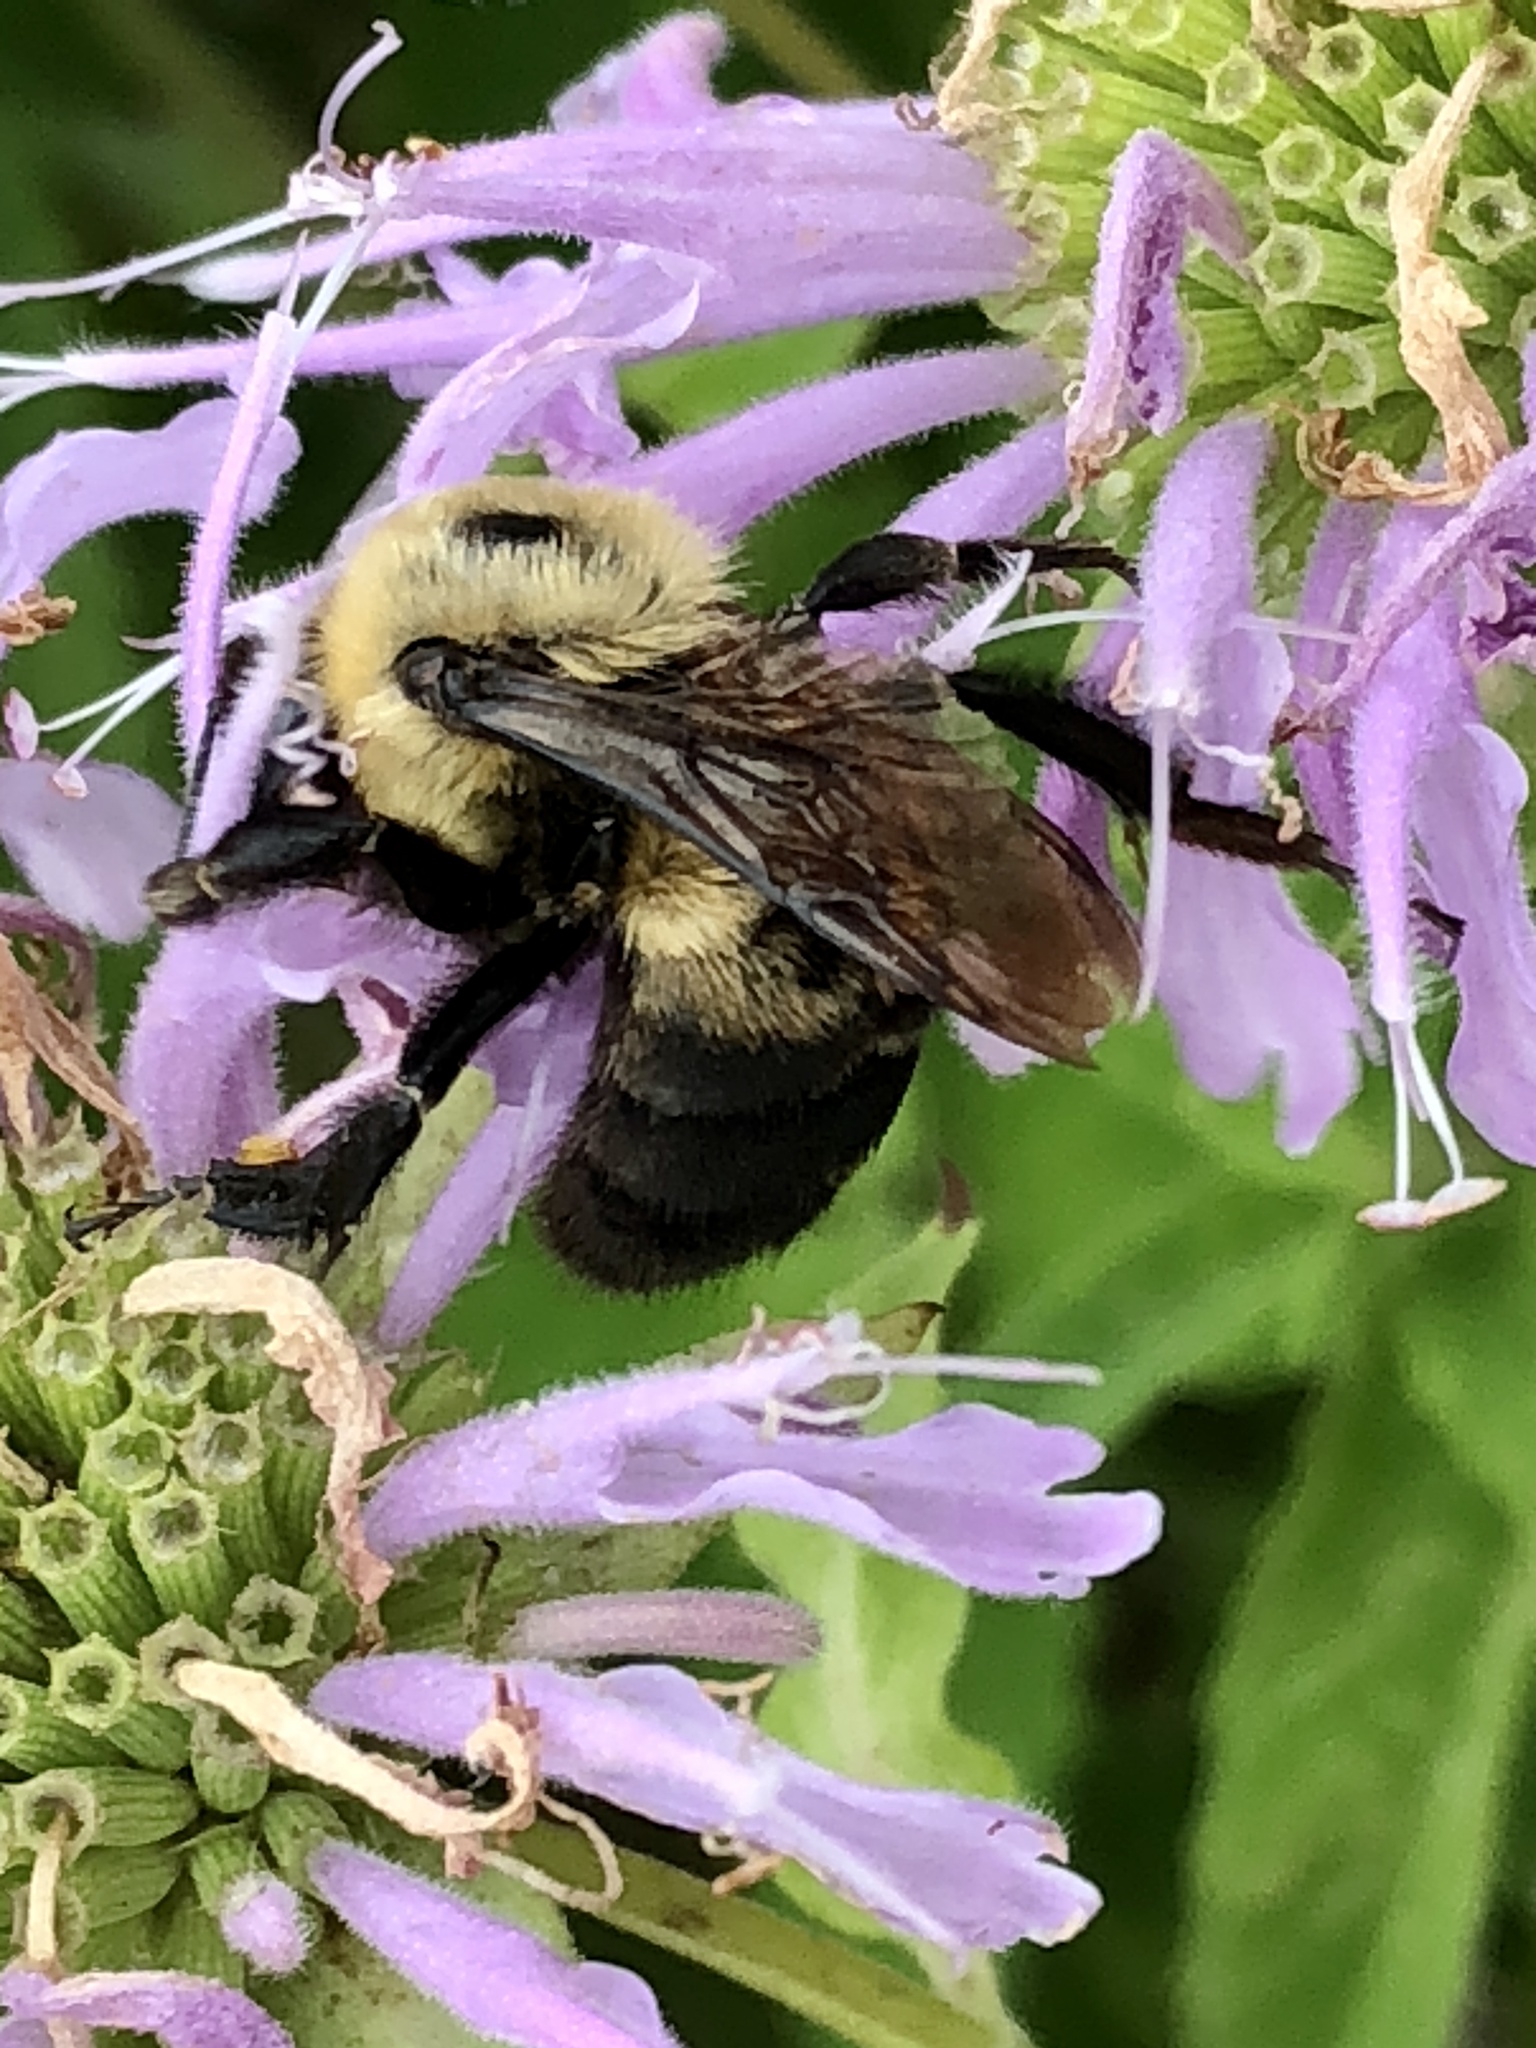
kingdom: Animalia
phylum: Arthropoda
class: Insecta
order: Hymenoptera
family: Apidae
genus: Bombus
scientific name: Bombus griseocollis
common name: Brown-belted bumble bee
